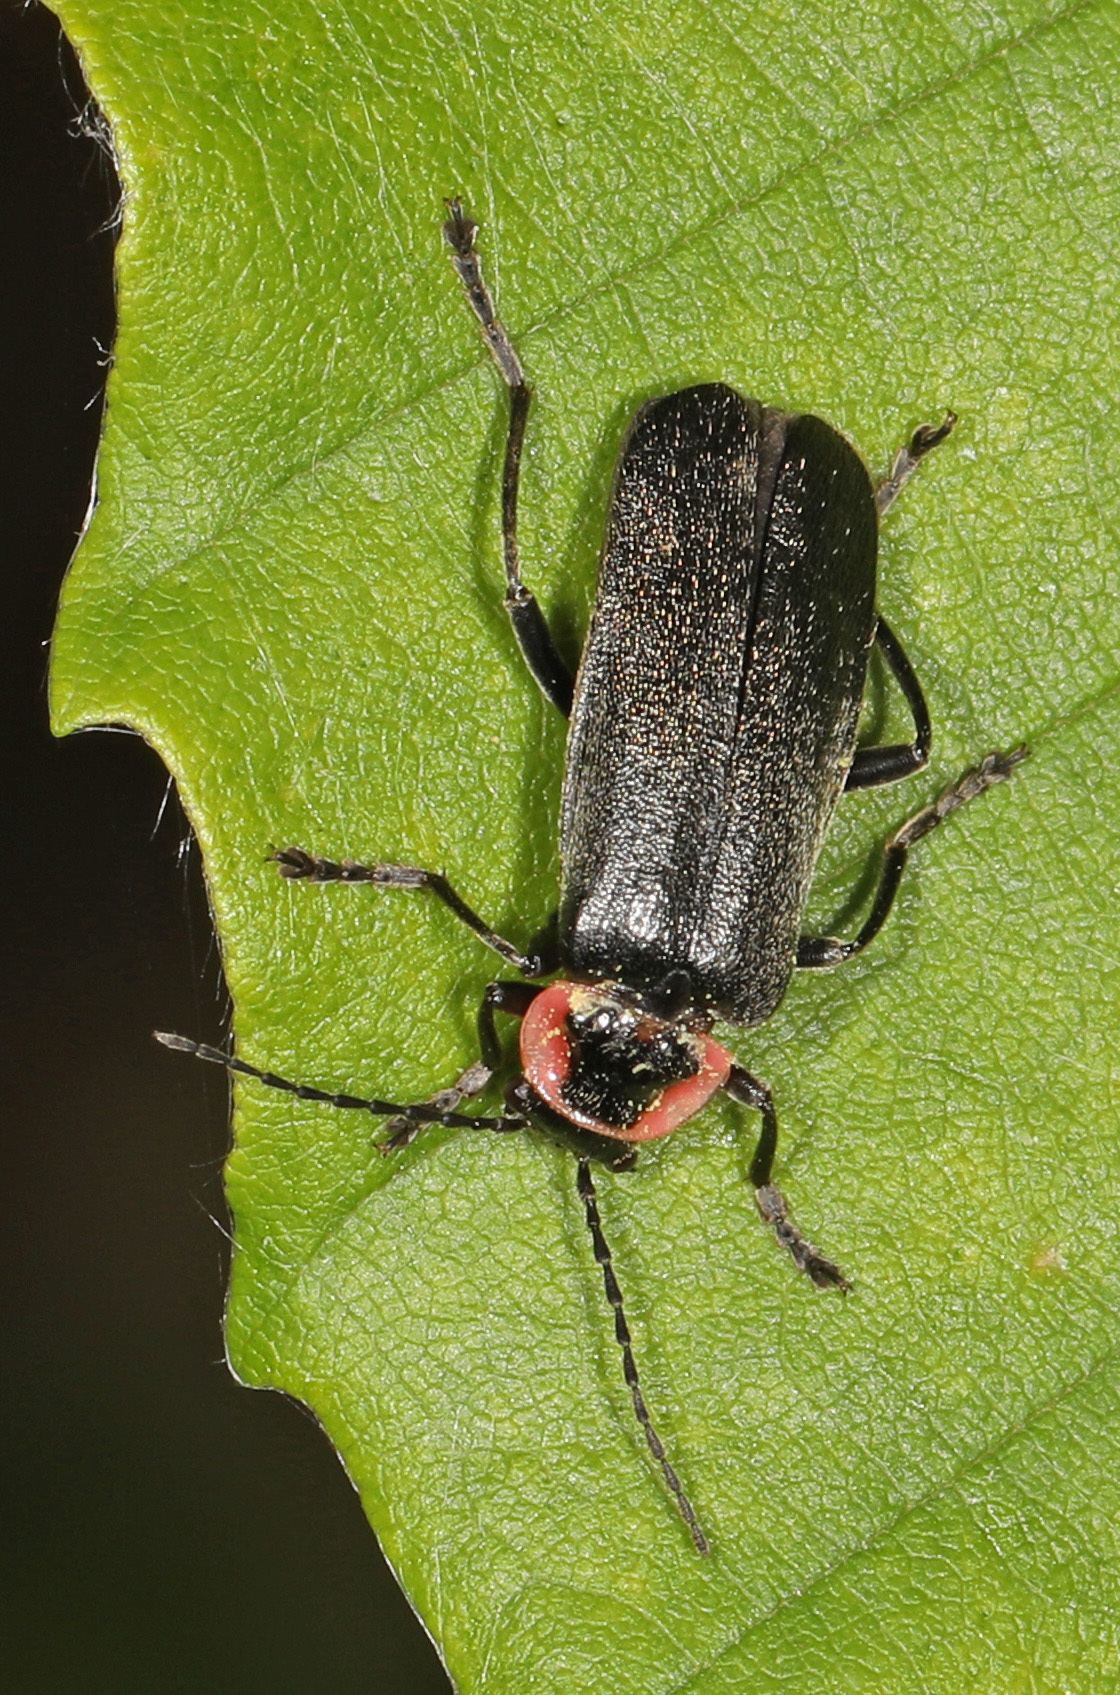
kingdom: Animalia
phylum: Arthropoda
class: Insecta
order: Coleoptera
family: Cantharidae
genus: Atalantycha
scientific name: Atalantycha neglecta
